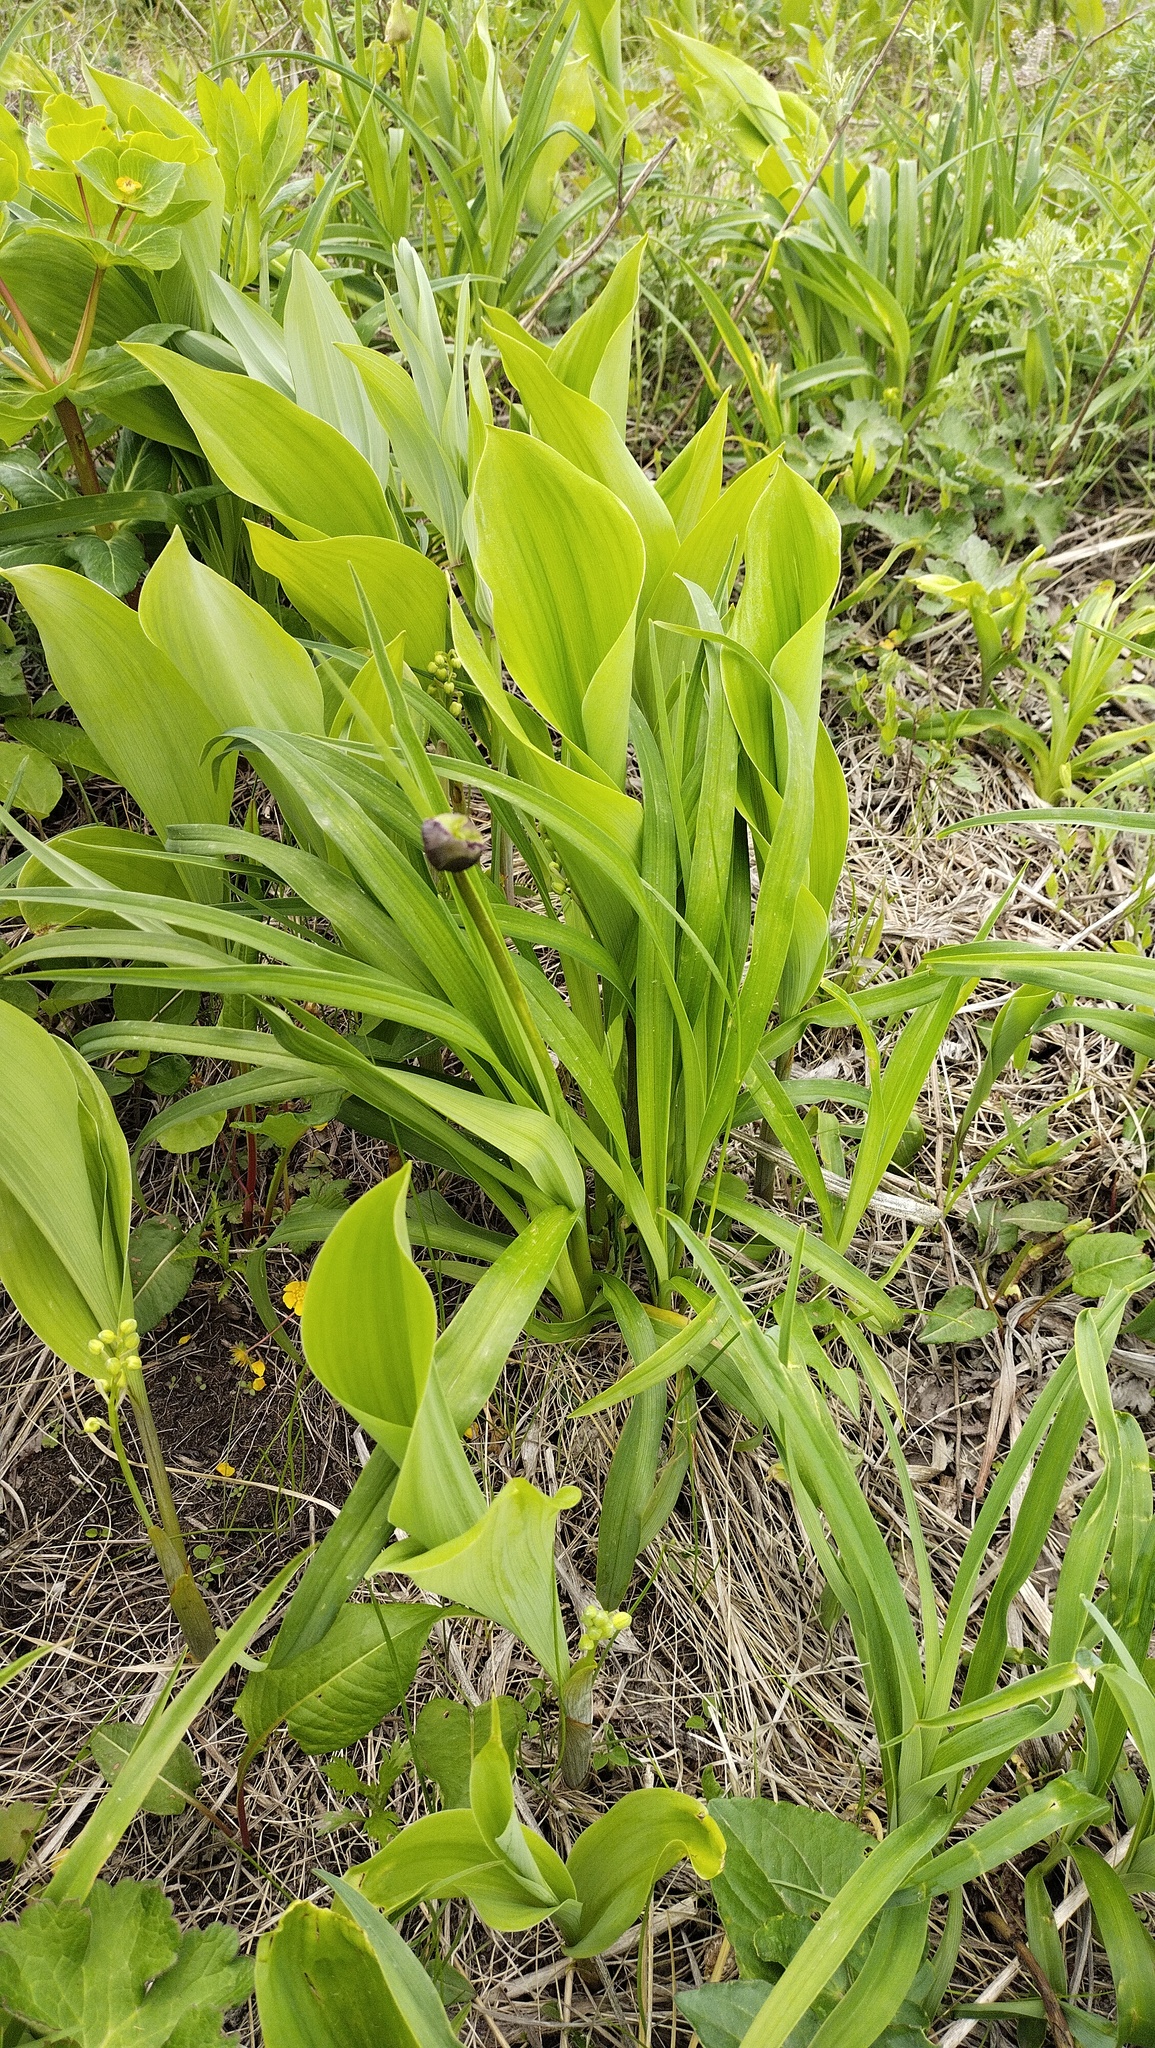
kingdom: Plantae
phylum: Tracheophyta
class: Liliopsida
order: Asparagales
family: Asphodelaceae
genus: Hemerocallis
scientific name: Hemerocallis middendorffii
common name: Amur day-lily
